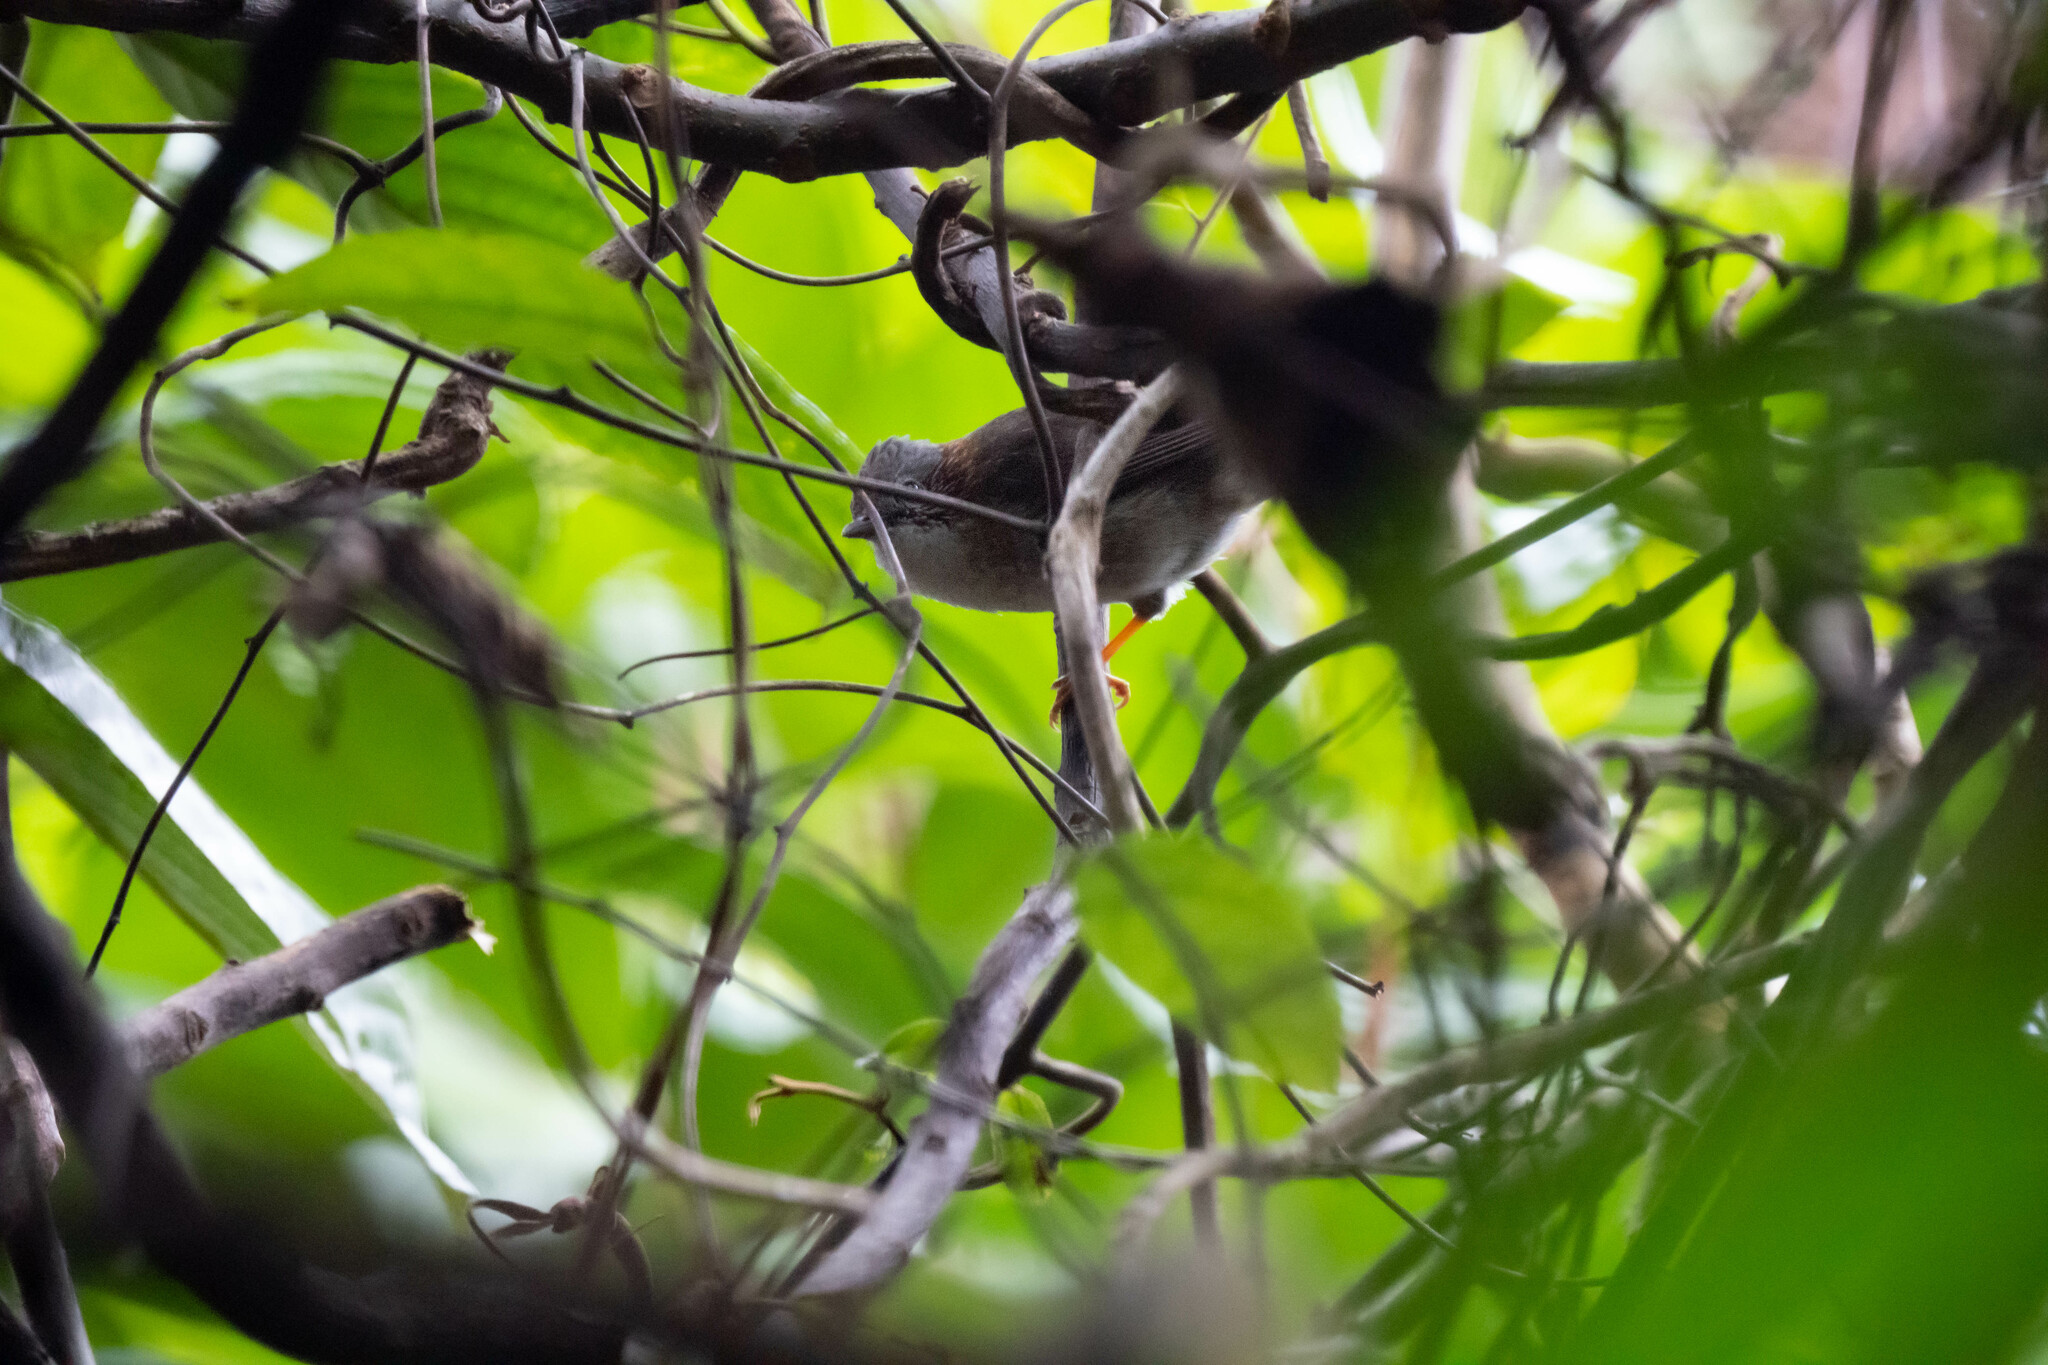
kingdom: Animalia
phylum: Chordata
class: Aves
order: Passeriformes
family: Zosteropidae
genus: Yuhina
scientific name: Yuhina torqueola
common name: Indochinese yuhina
